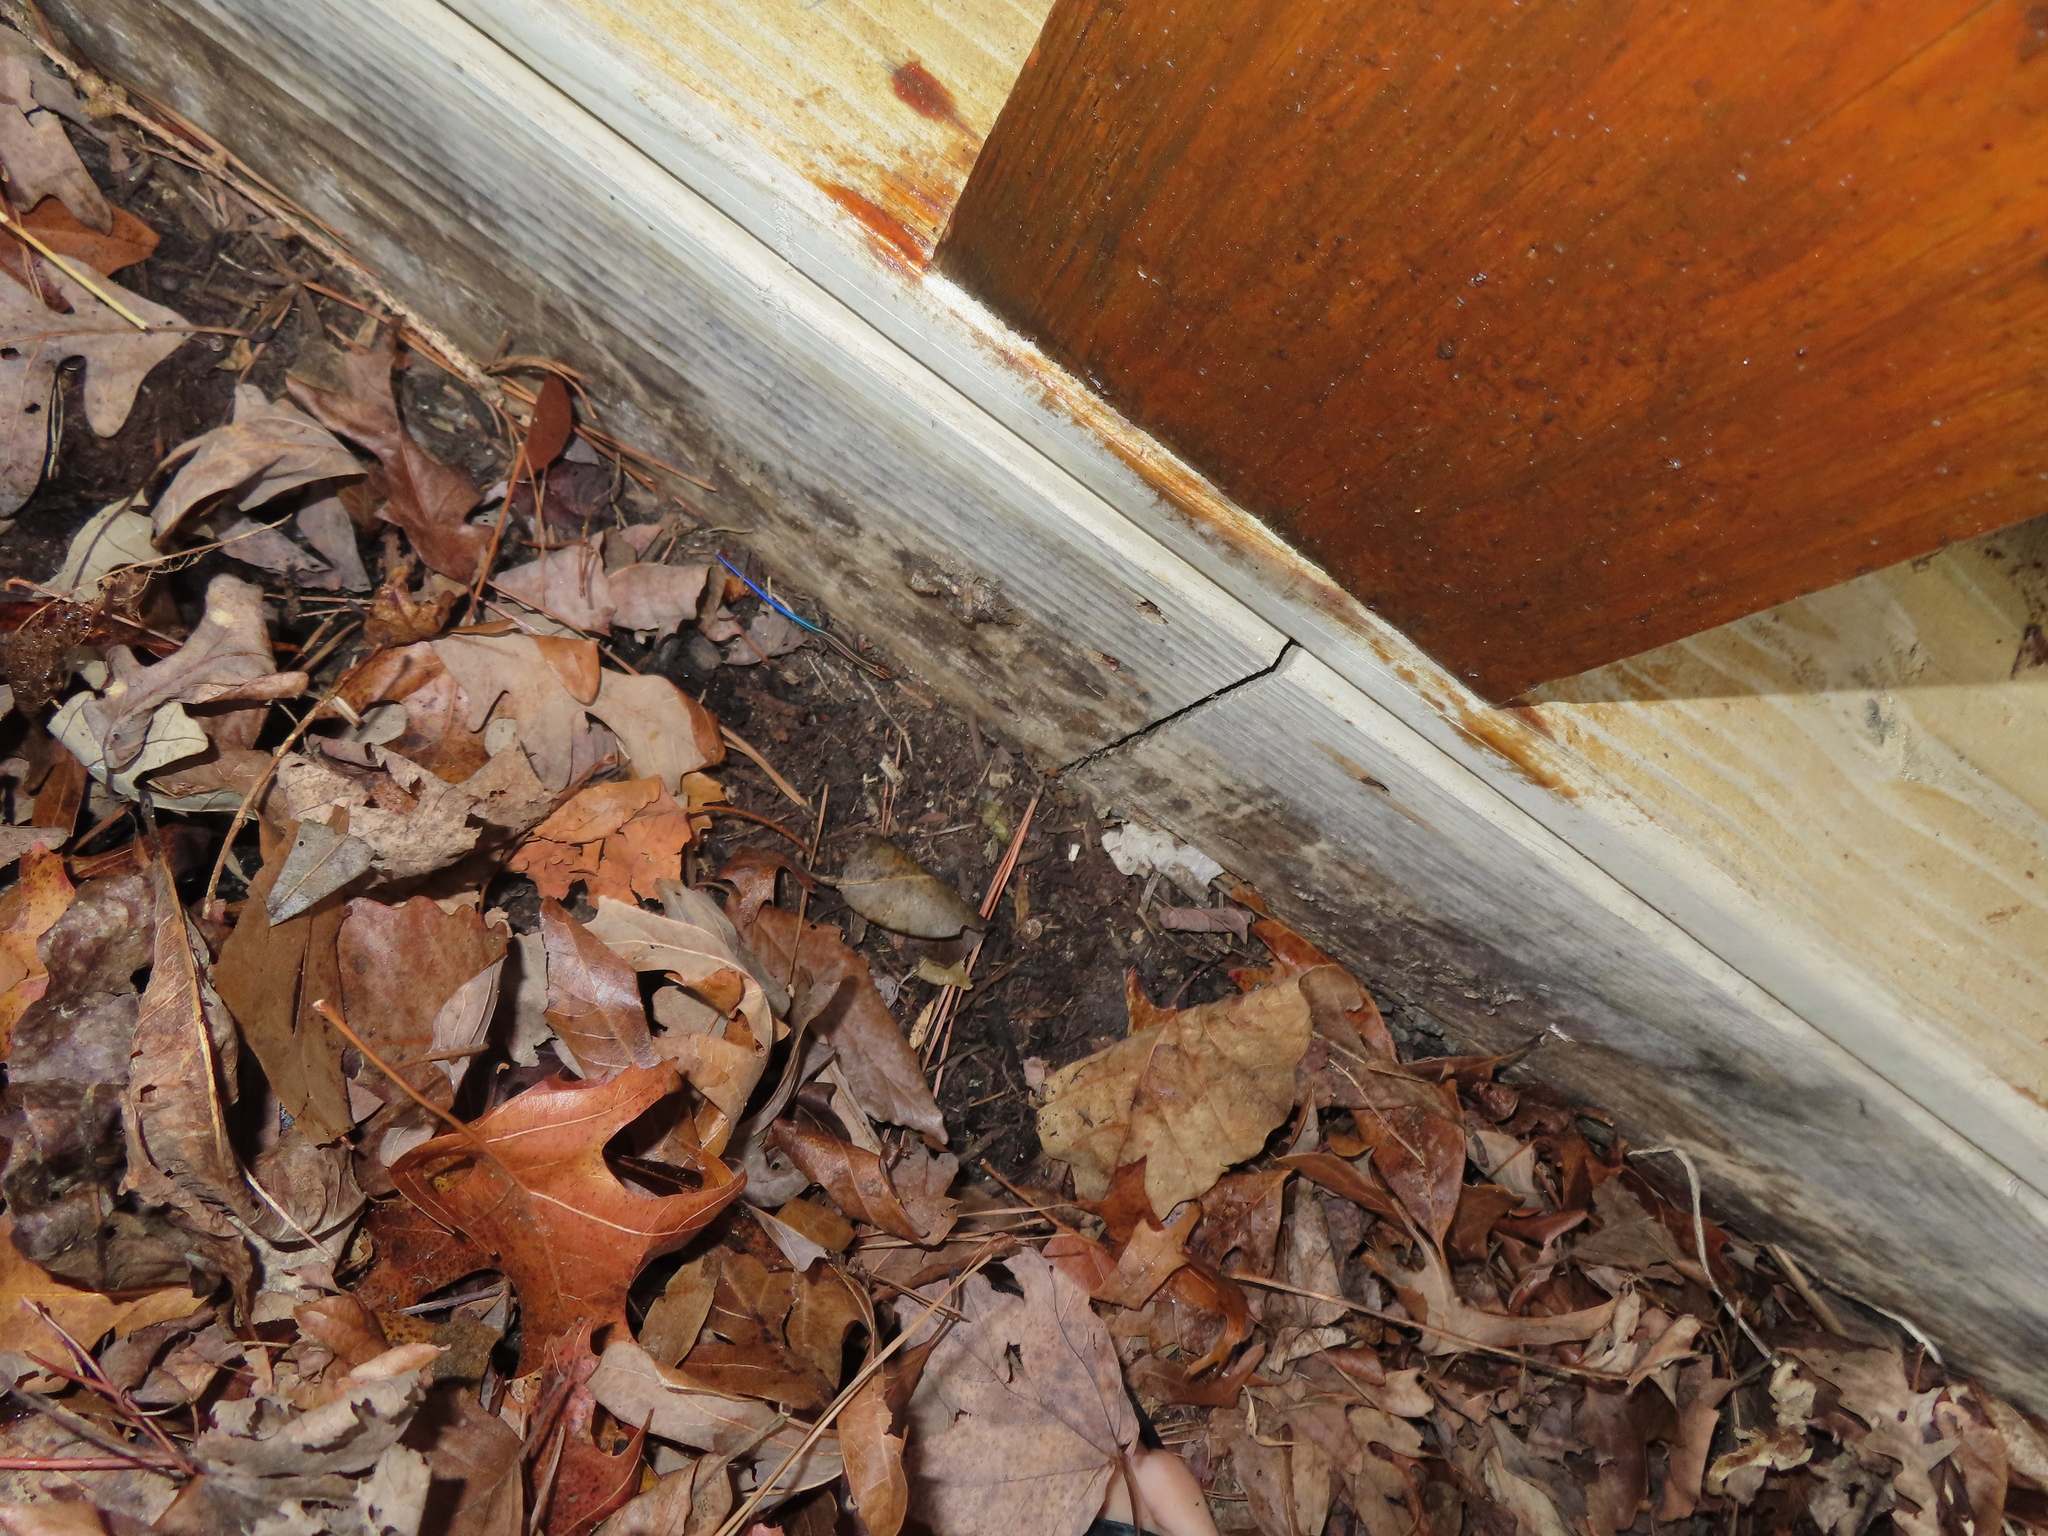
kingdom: Animalia
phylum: Chordata
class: Squamata
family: Scincidae
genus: Plestiodon
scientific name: Plestiodon fasciatus
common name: Five-lined skink
